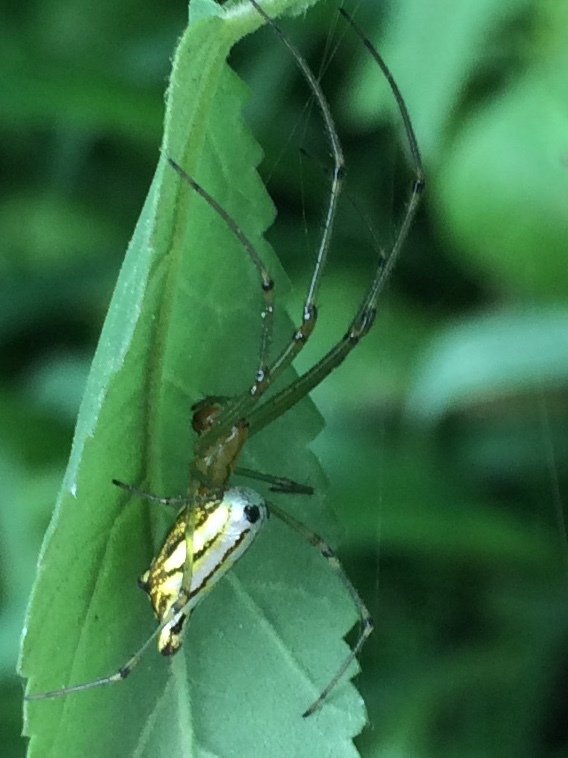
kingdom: Animalia
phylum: Arthropoda
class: Arachnida
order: Araneae
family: Tetragnathidae
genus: Leucauge
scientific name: Leucauge decorata
